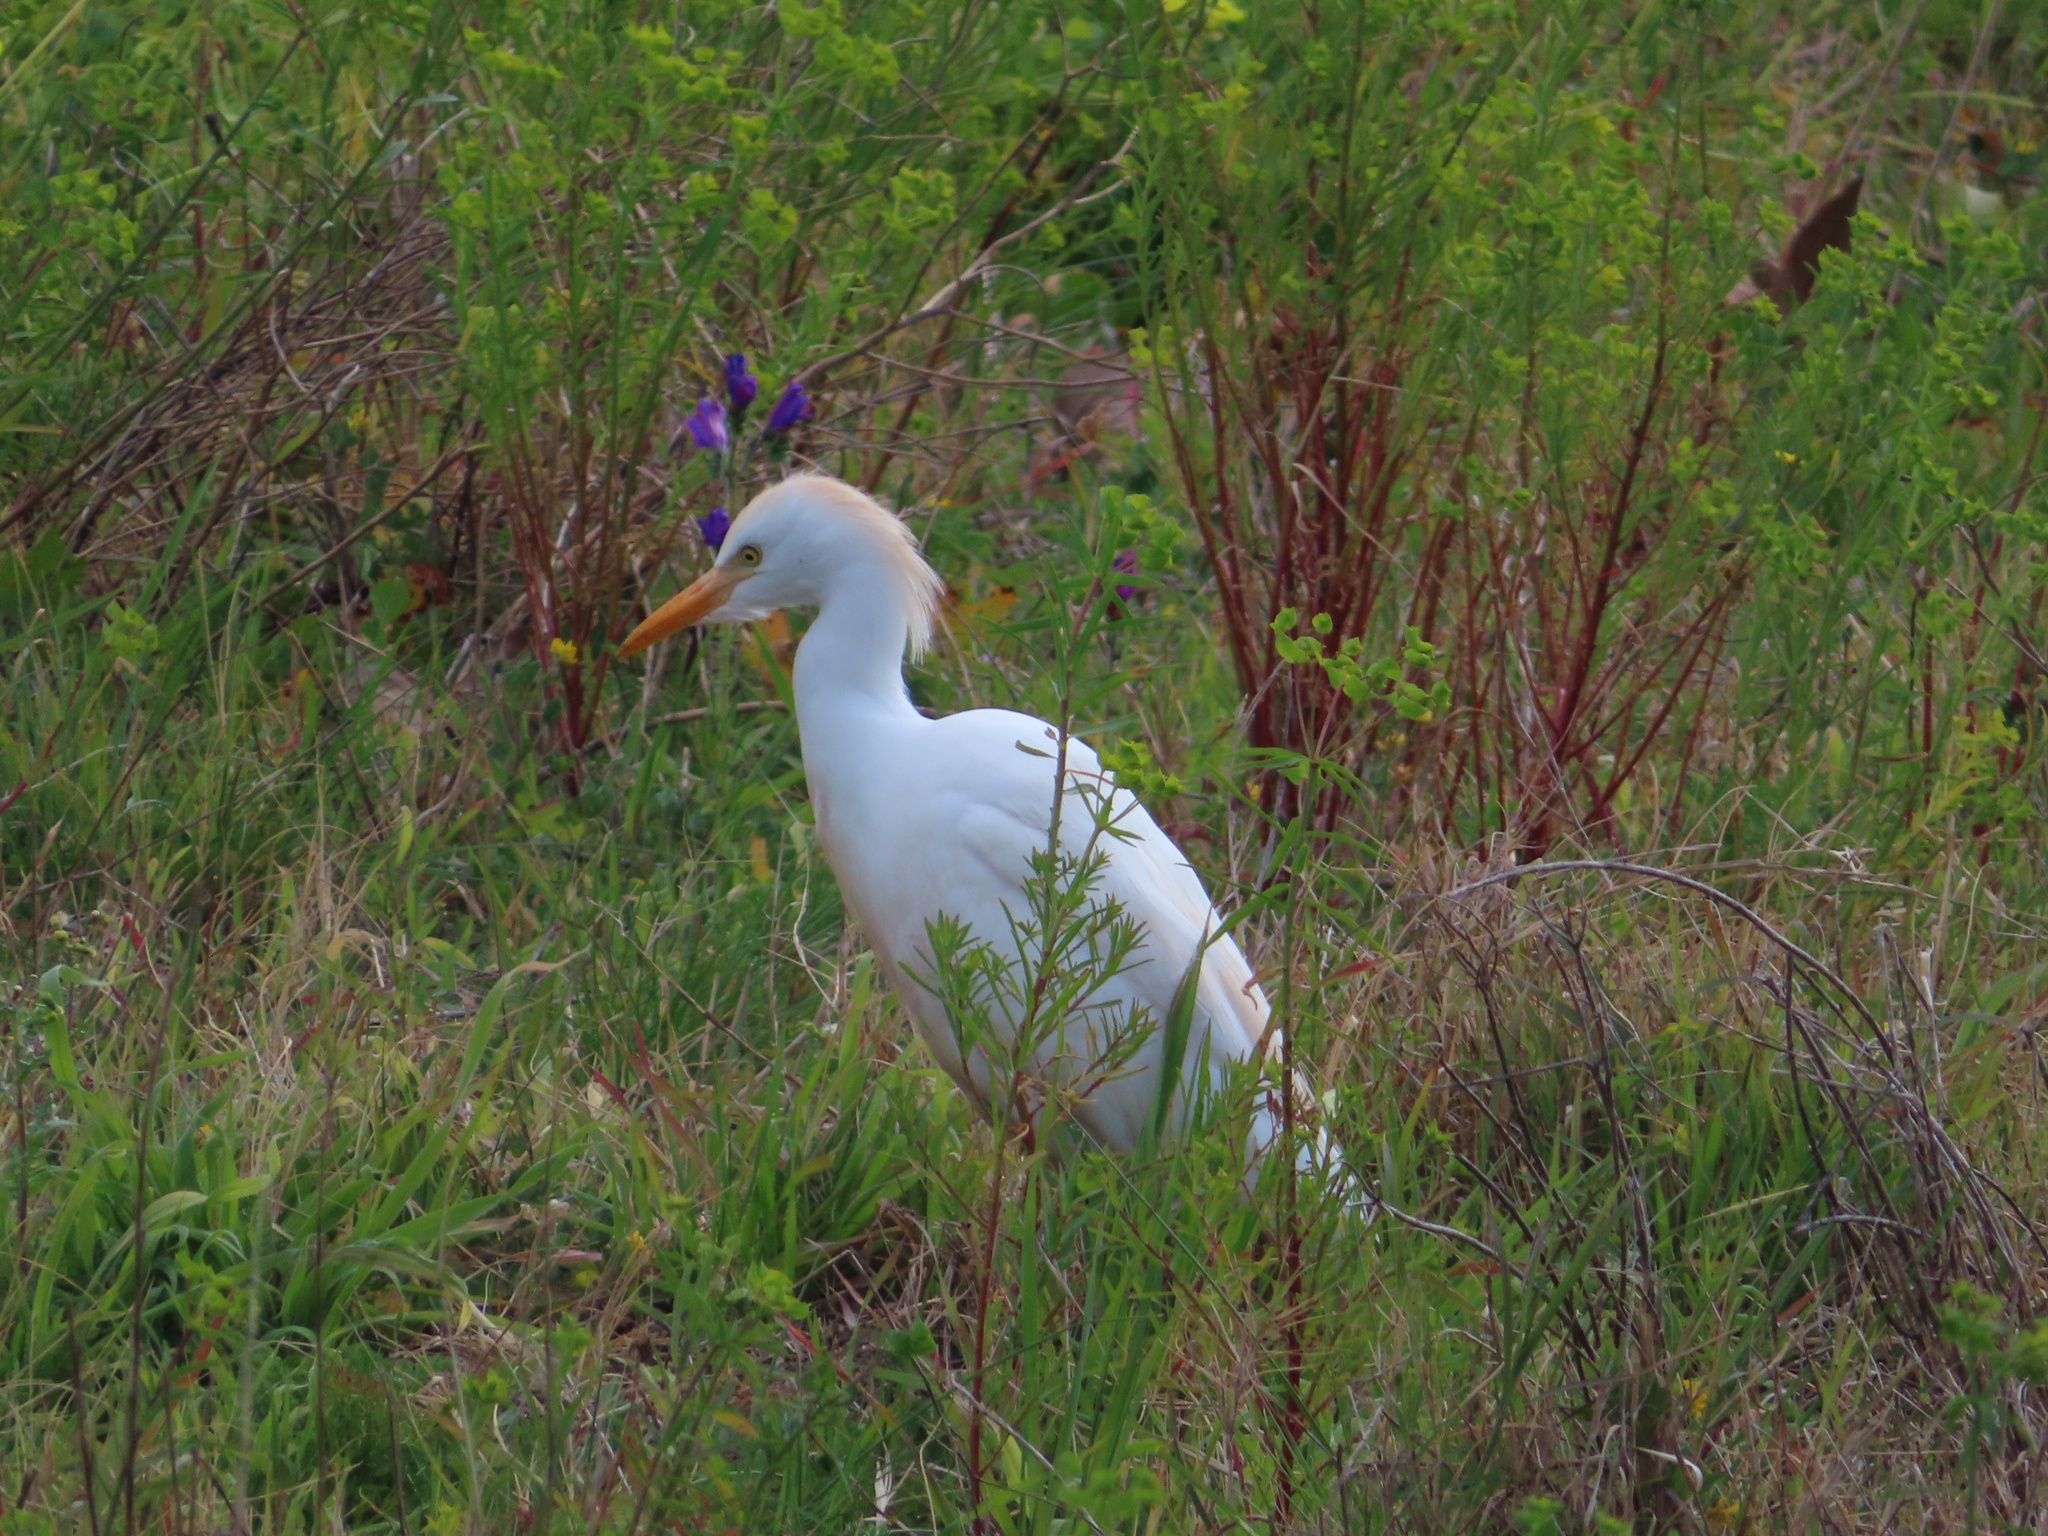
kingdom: Animalia
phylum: Chordata
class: Aves
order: Pelecaniformes
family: Ardeidae
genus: Bubulcus
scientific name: Bubulcus ibis
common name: Cattle egret
